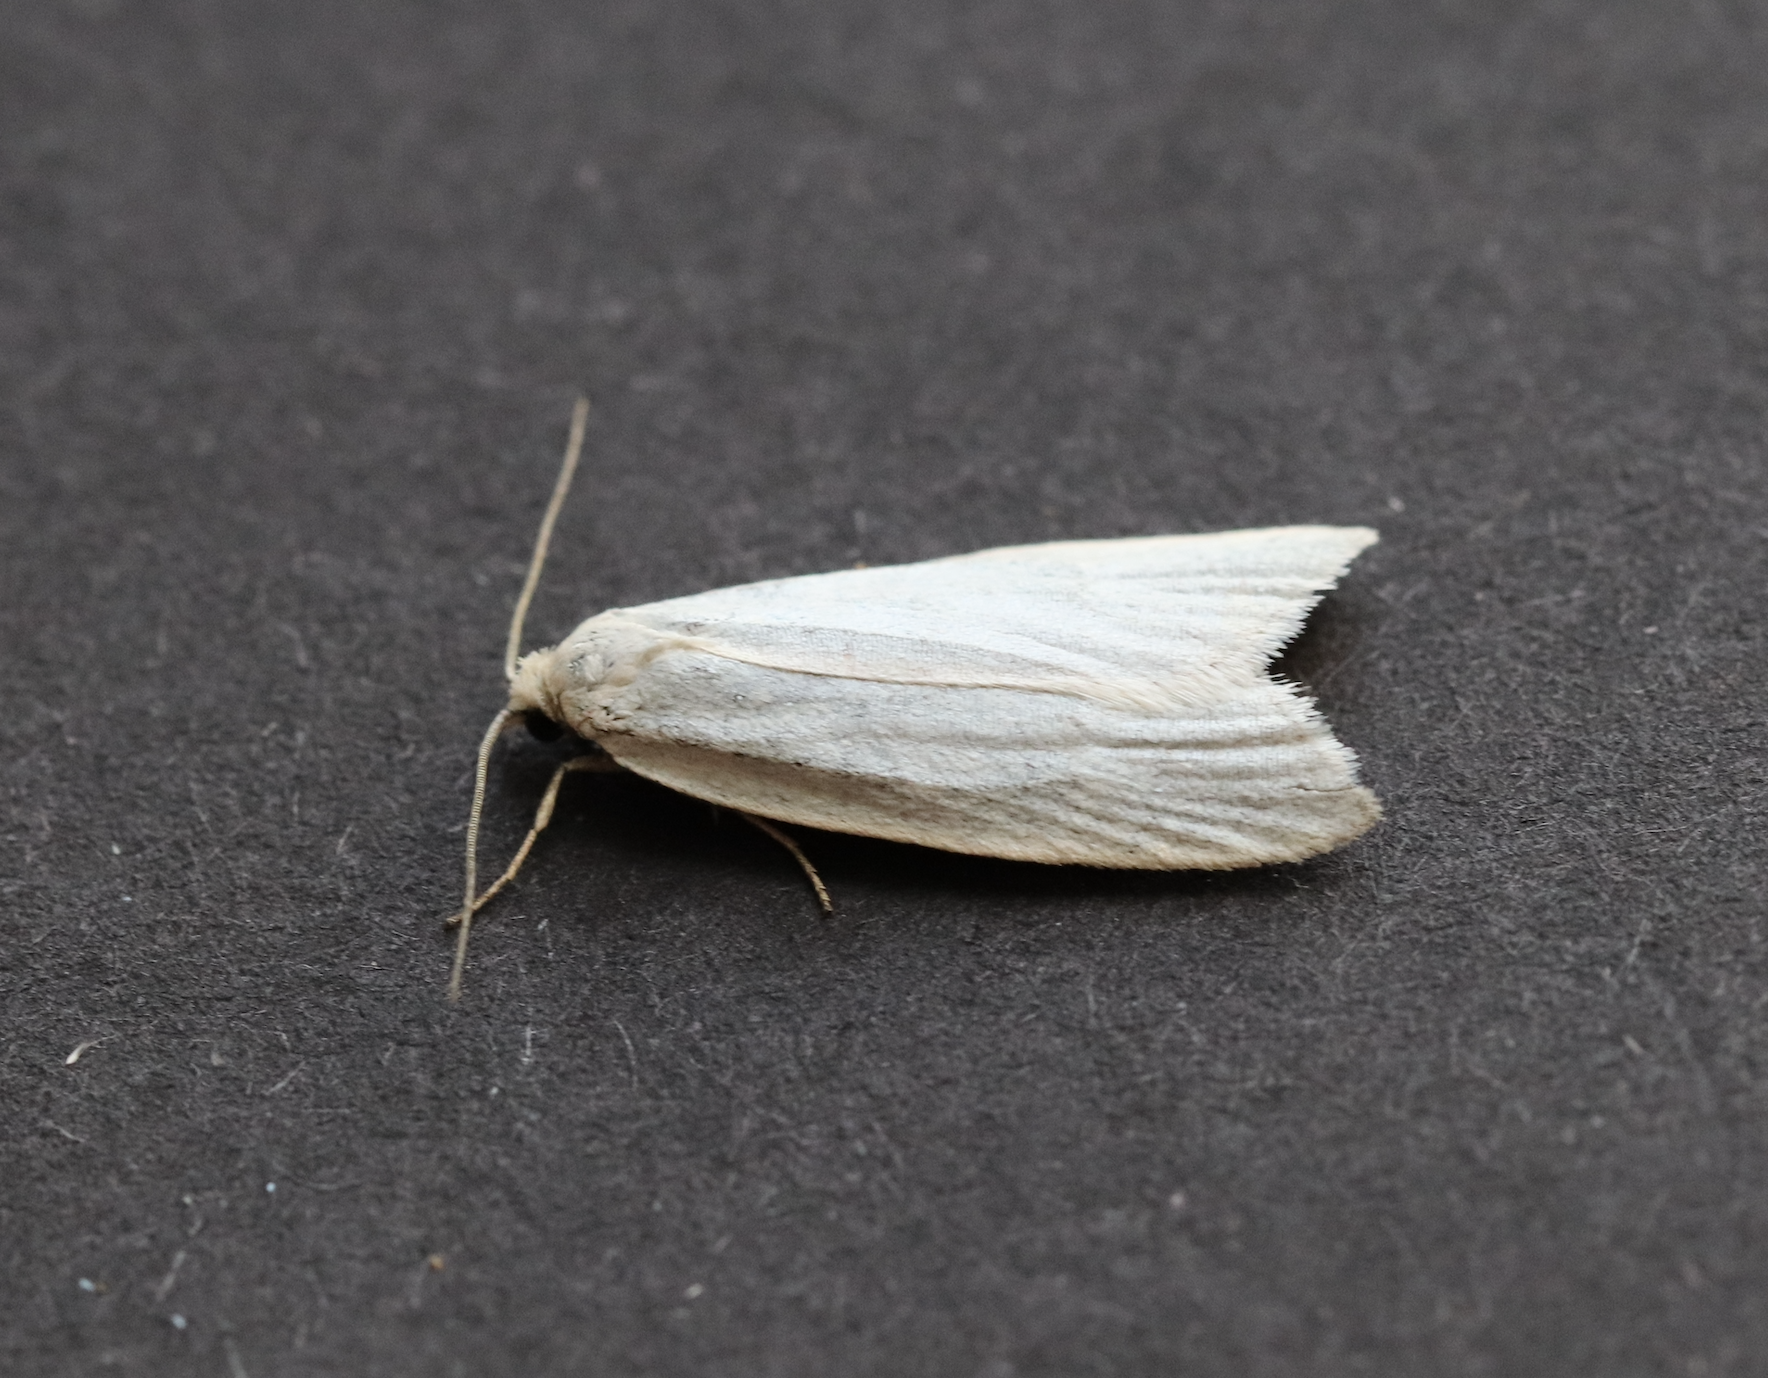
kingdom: Animalia
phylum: Arthropoda
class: Insecta
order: Lepidoptera
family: Tortricidae
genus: Eana
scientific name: Eana argentana
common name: Silver shade
